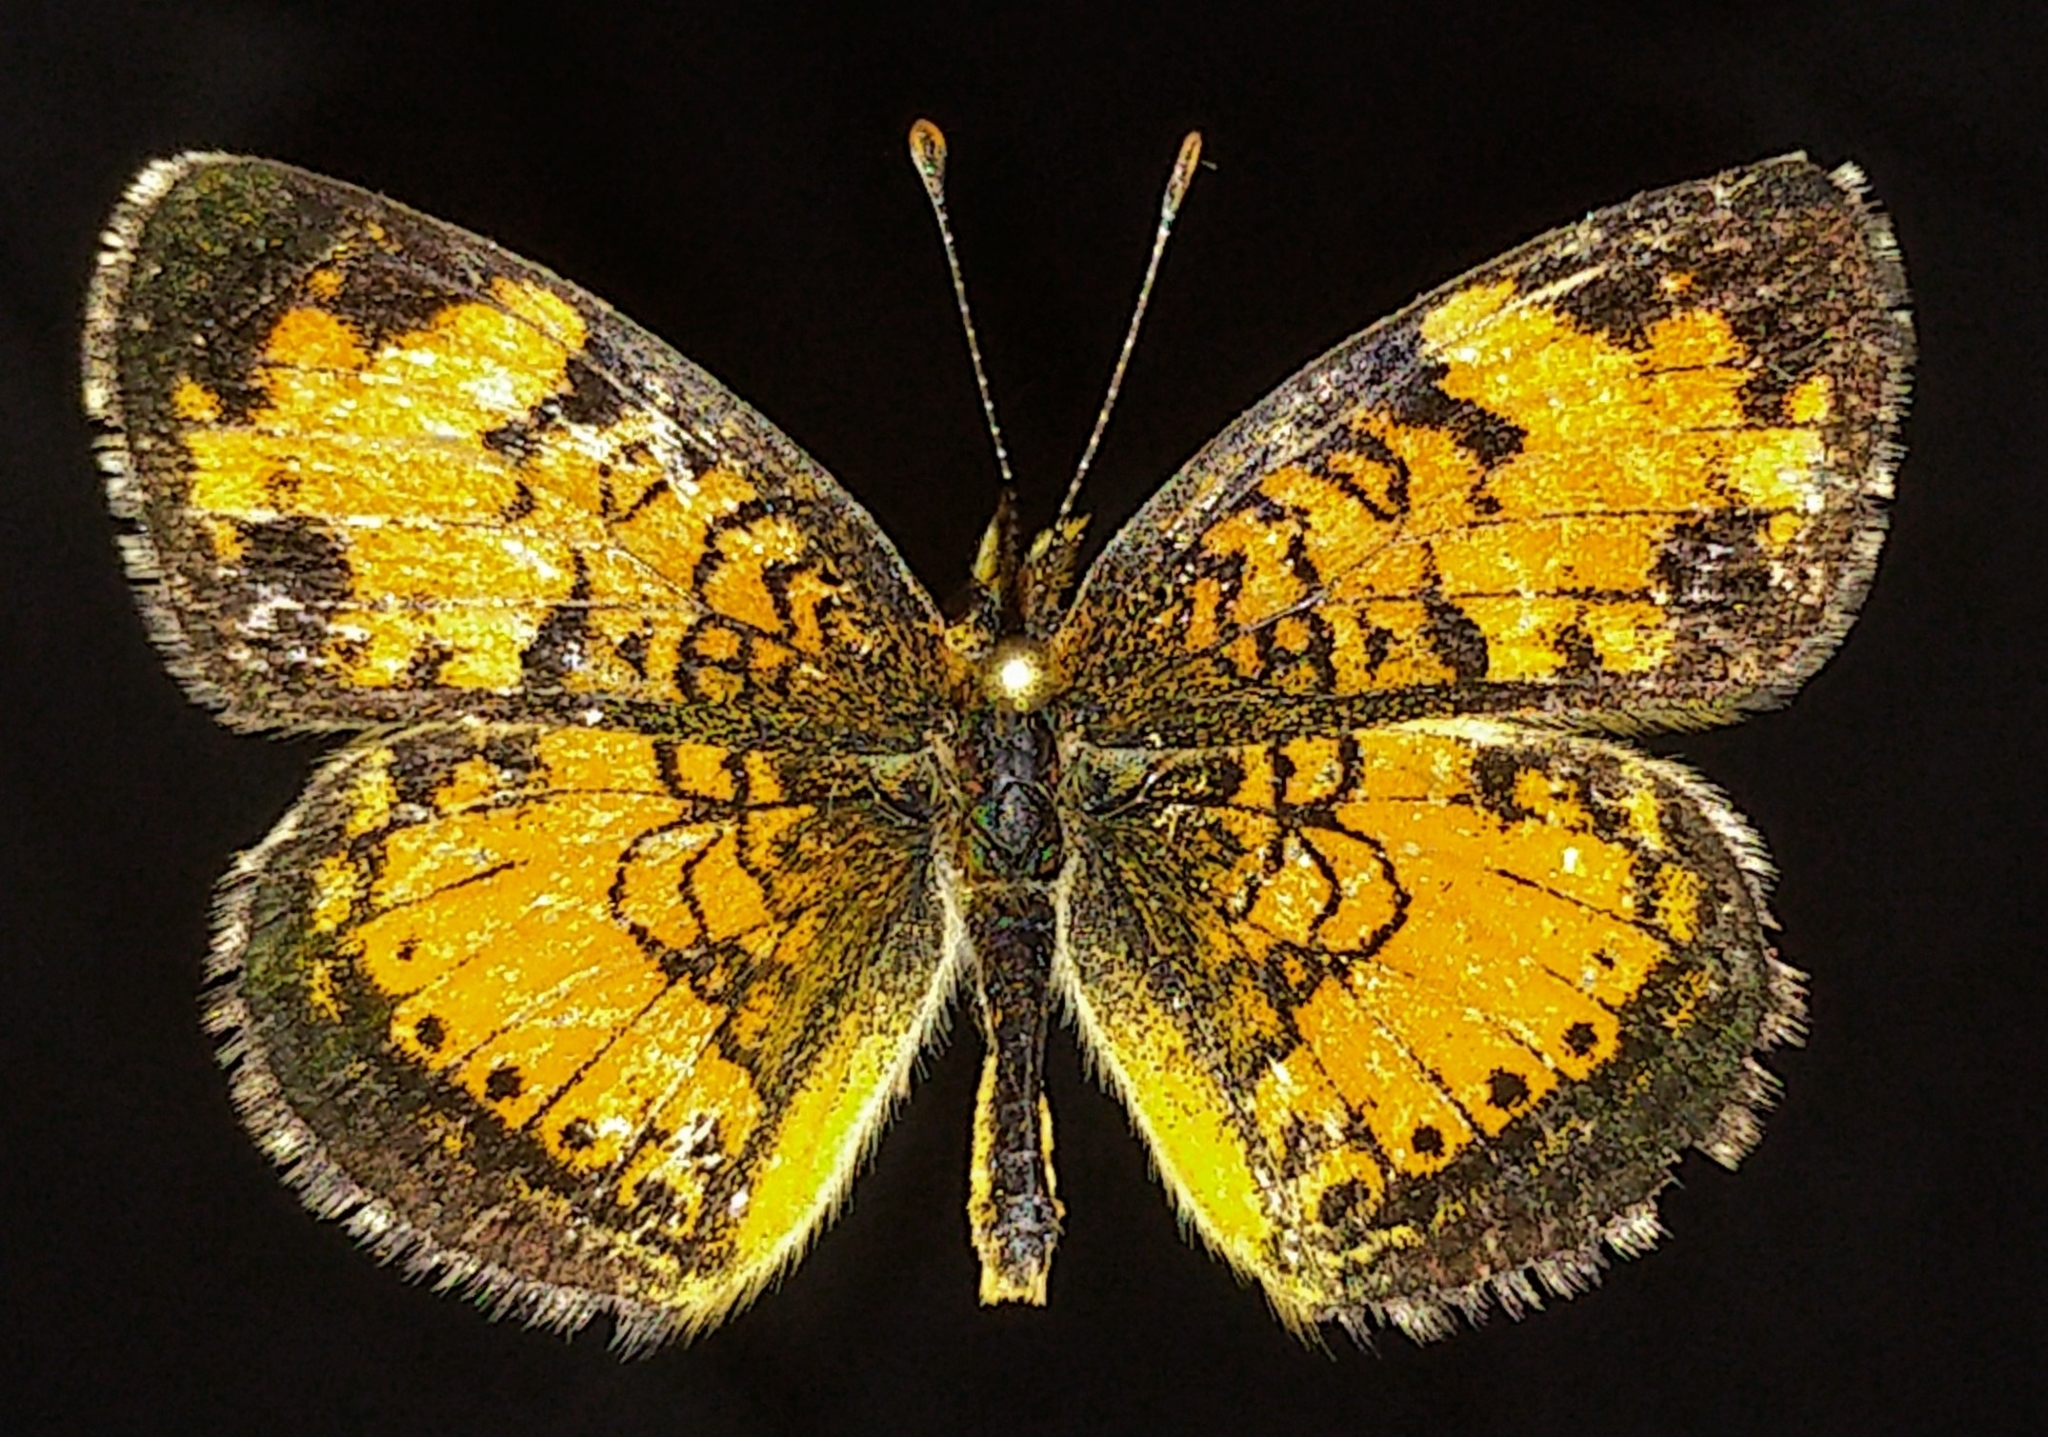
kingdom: Animalia
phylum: Arthropoda
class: Insecta
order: Lepidoptera
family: Nymphalidae
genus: Phyciodes
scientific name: Phyciodes tharos
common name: Pearl crescent
